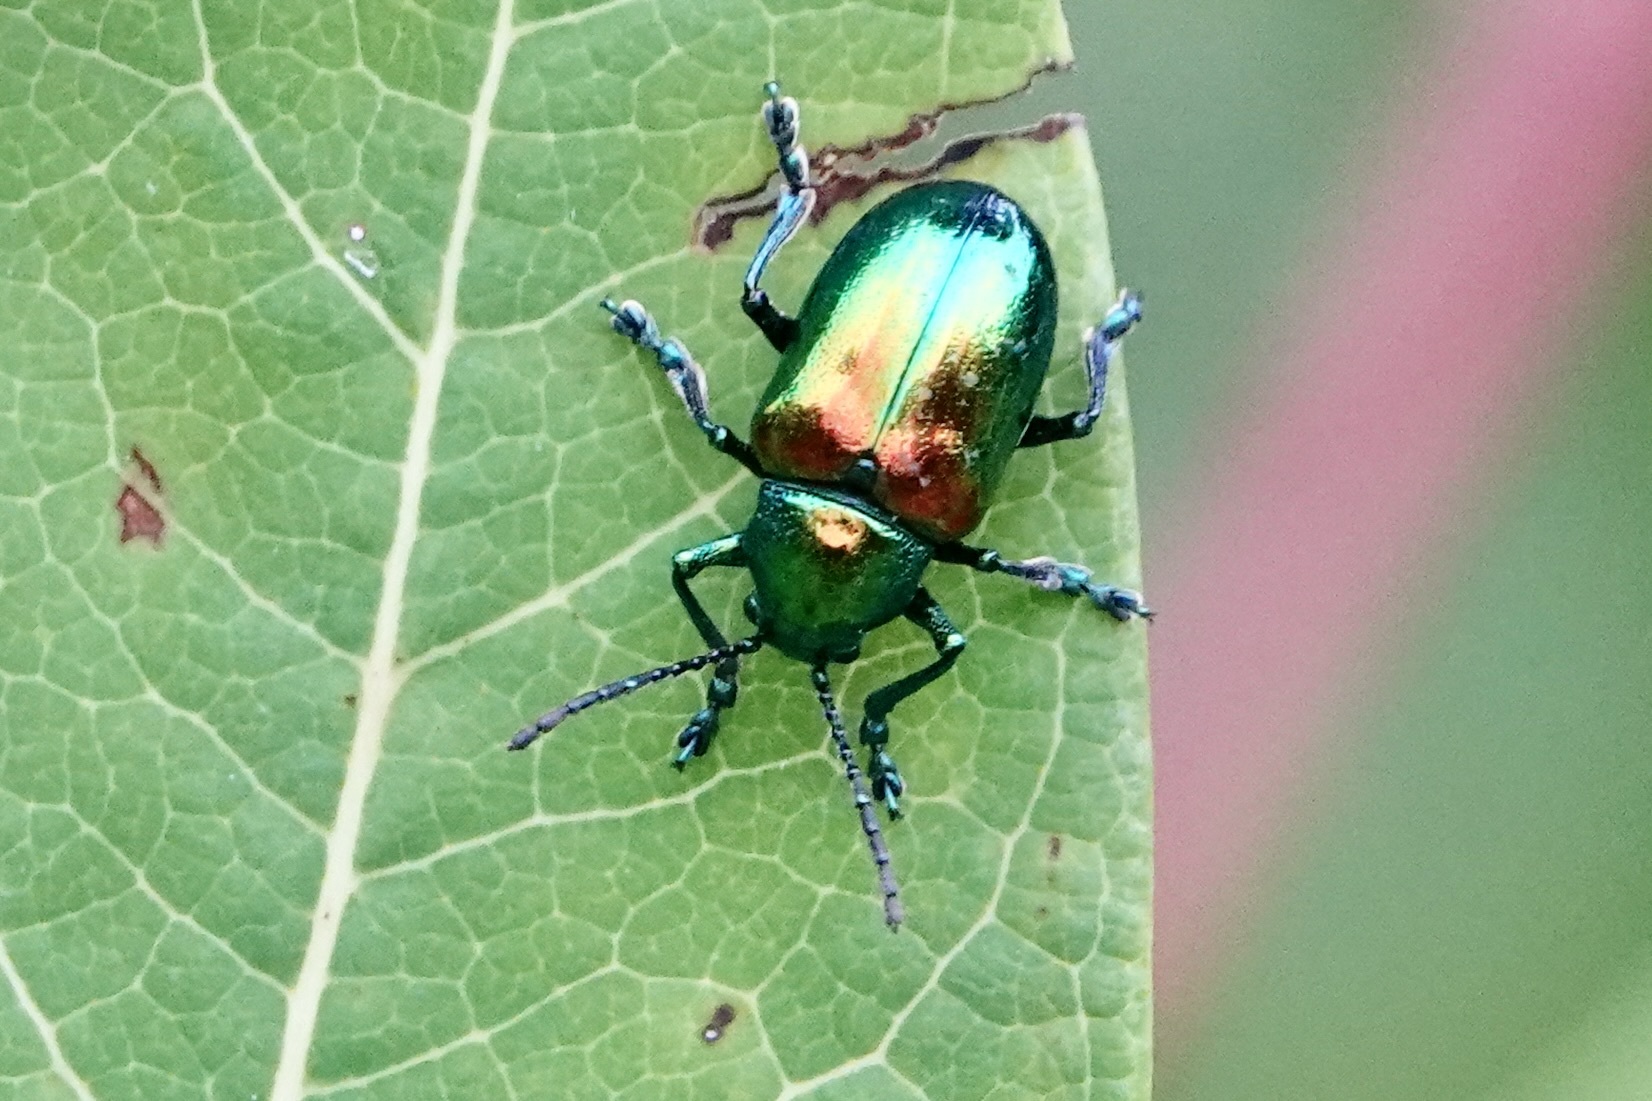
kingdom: Animalia
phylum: Arthropoda
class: Insecta
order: Coleoptera
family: Chrysomelidae
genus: Chrysochus
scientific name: Chrysochus auratus
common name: Dogbane leaf beetle
